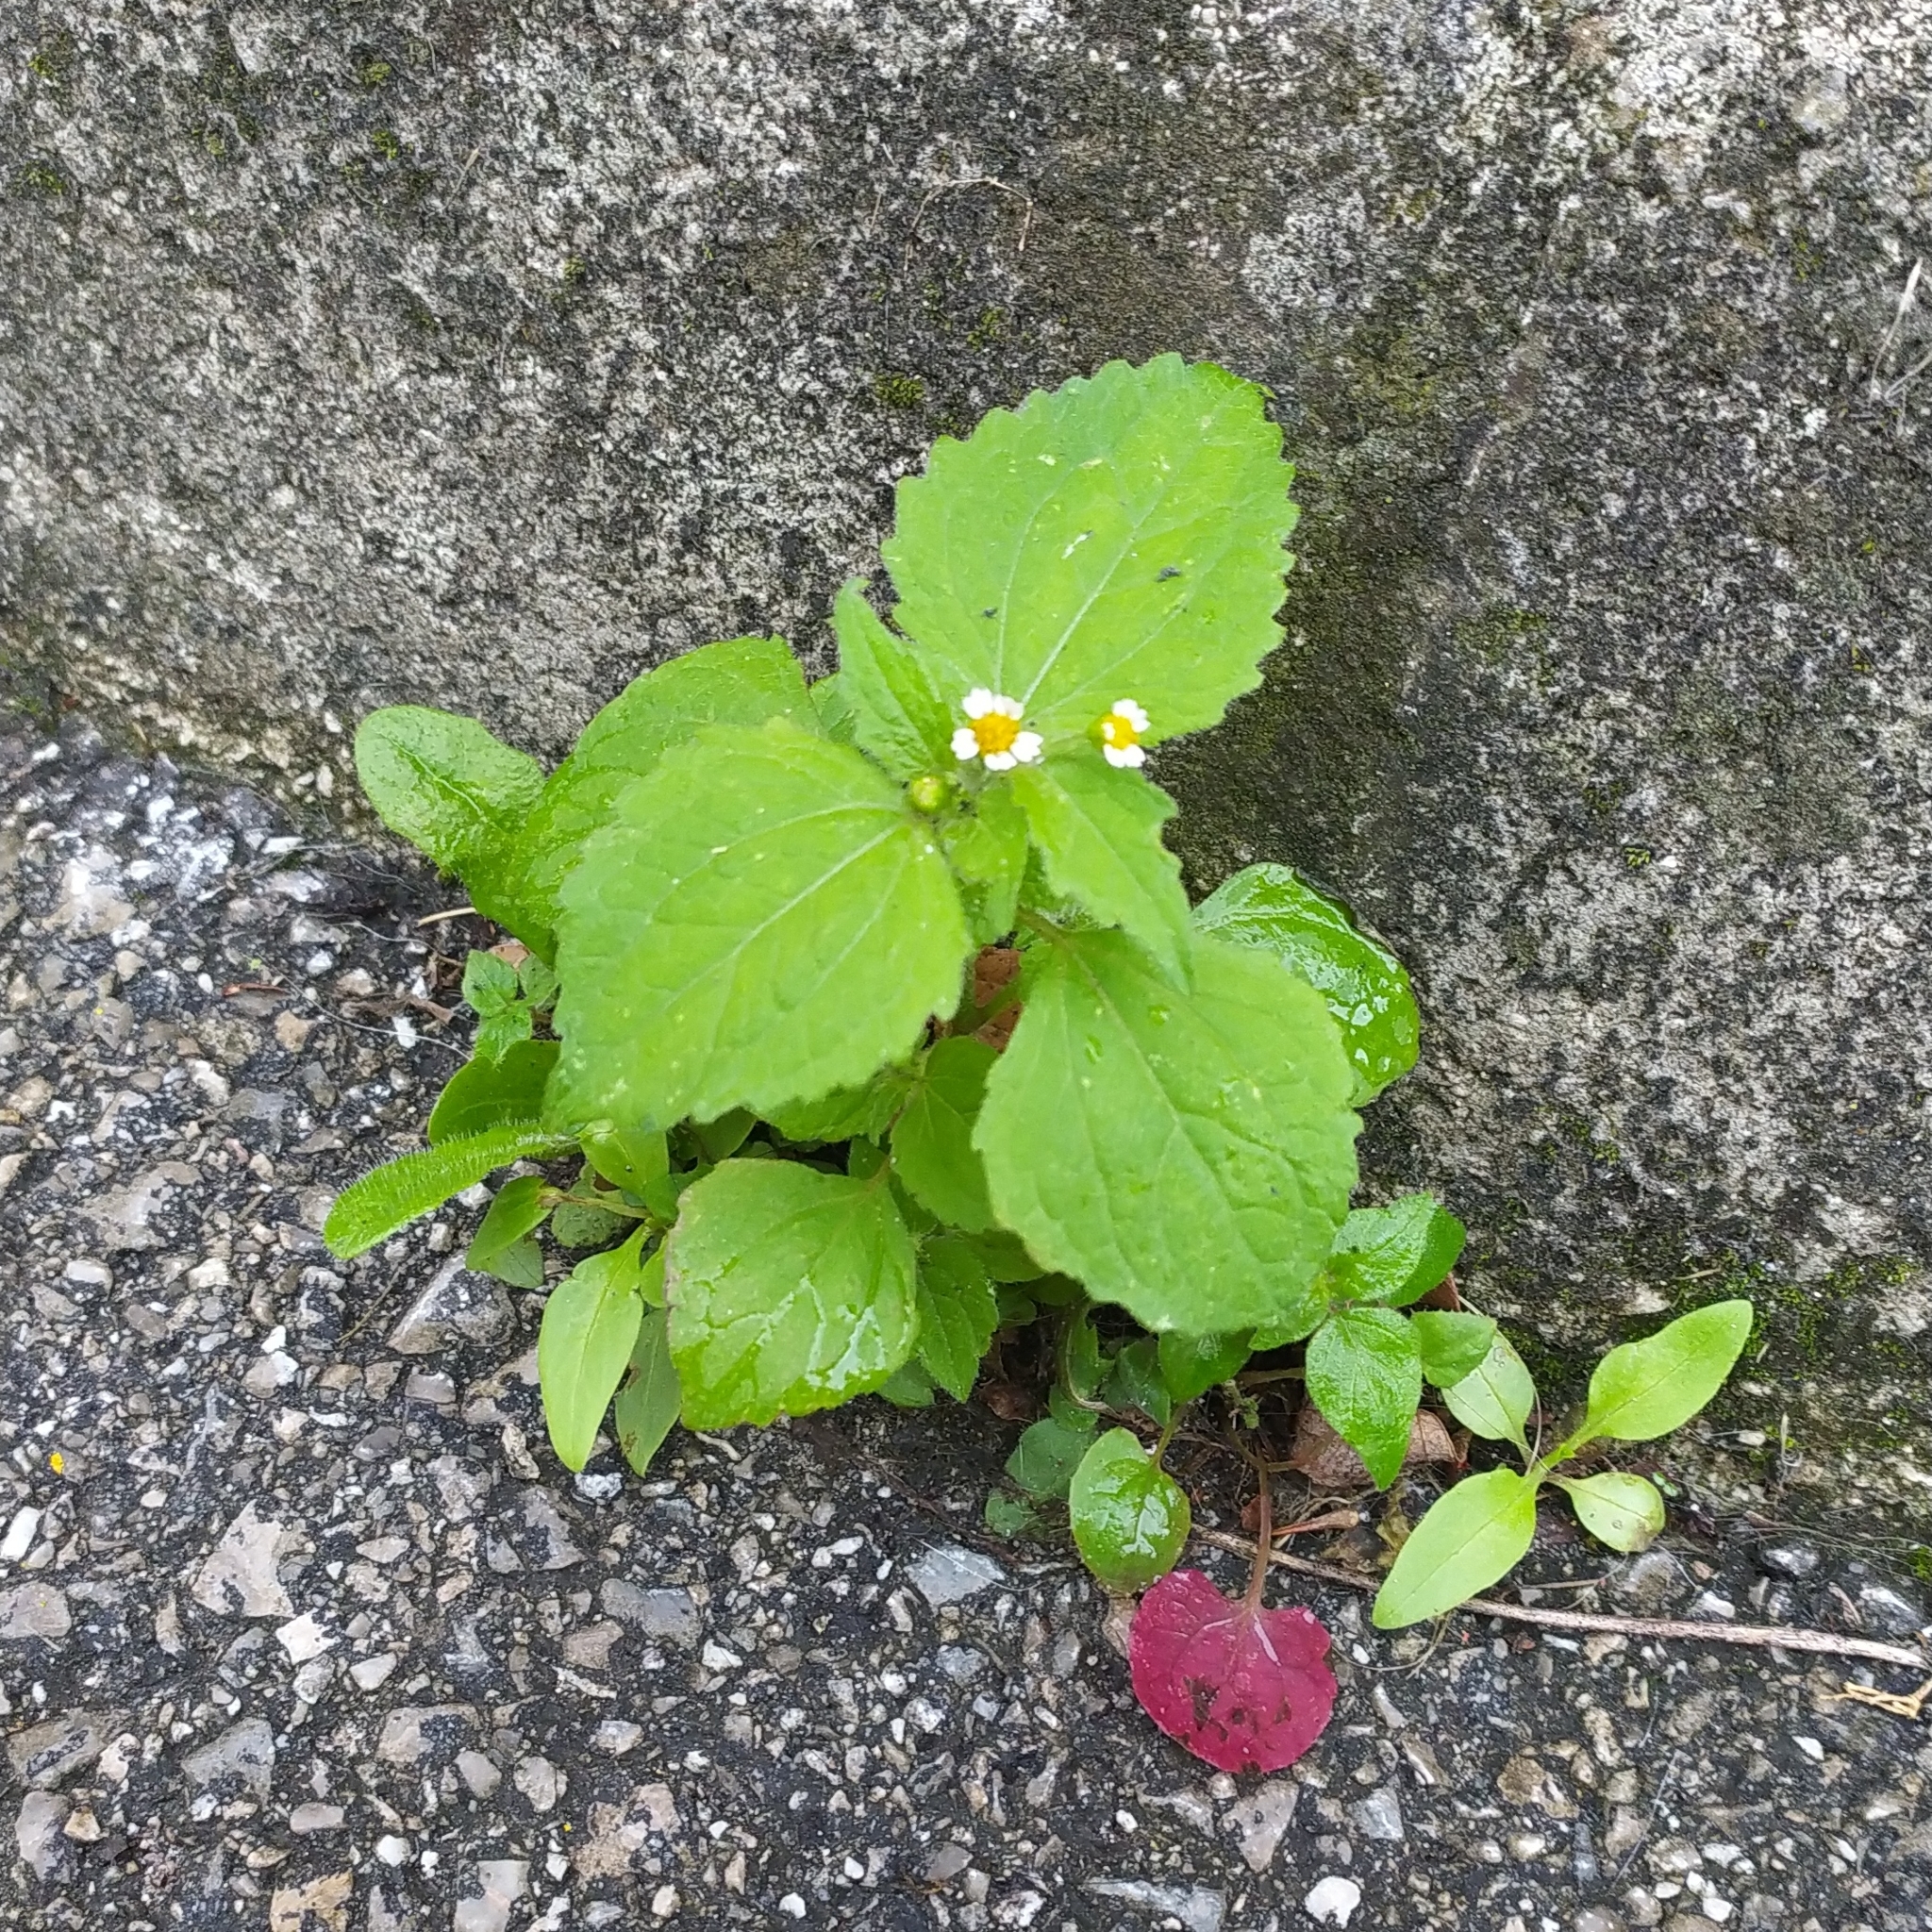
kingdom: Plantae
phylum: Tracheophyta
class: Magnoliopsida
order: Asterales
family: Asteraceae
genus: Galinsoga
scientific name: Galinsoga quadriradiata
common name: Shaggy soldier
